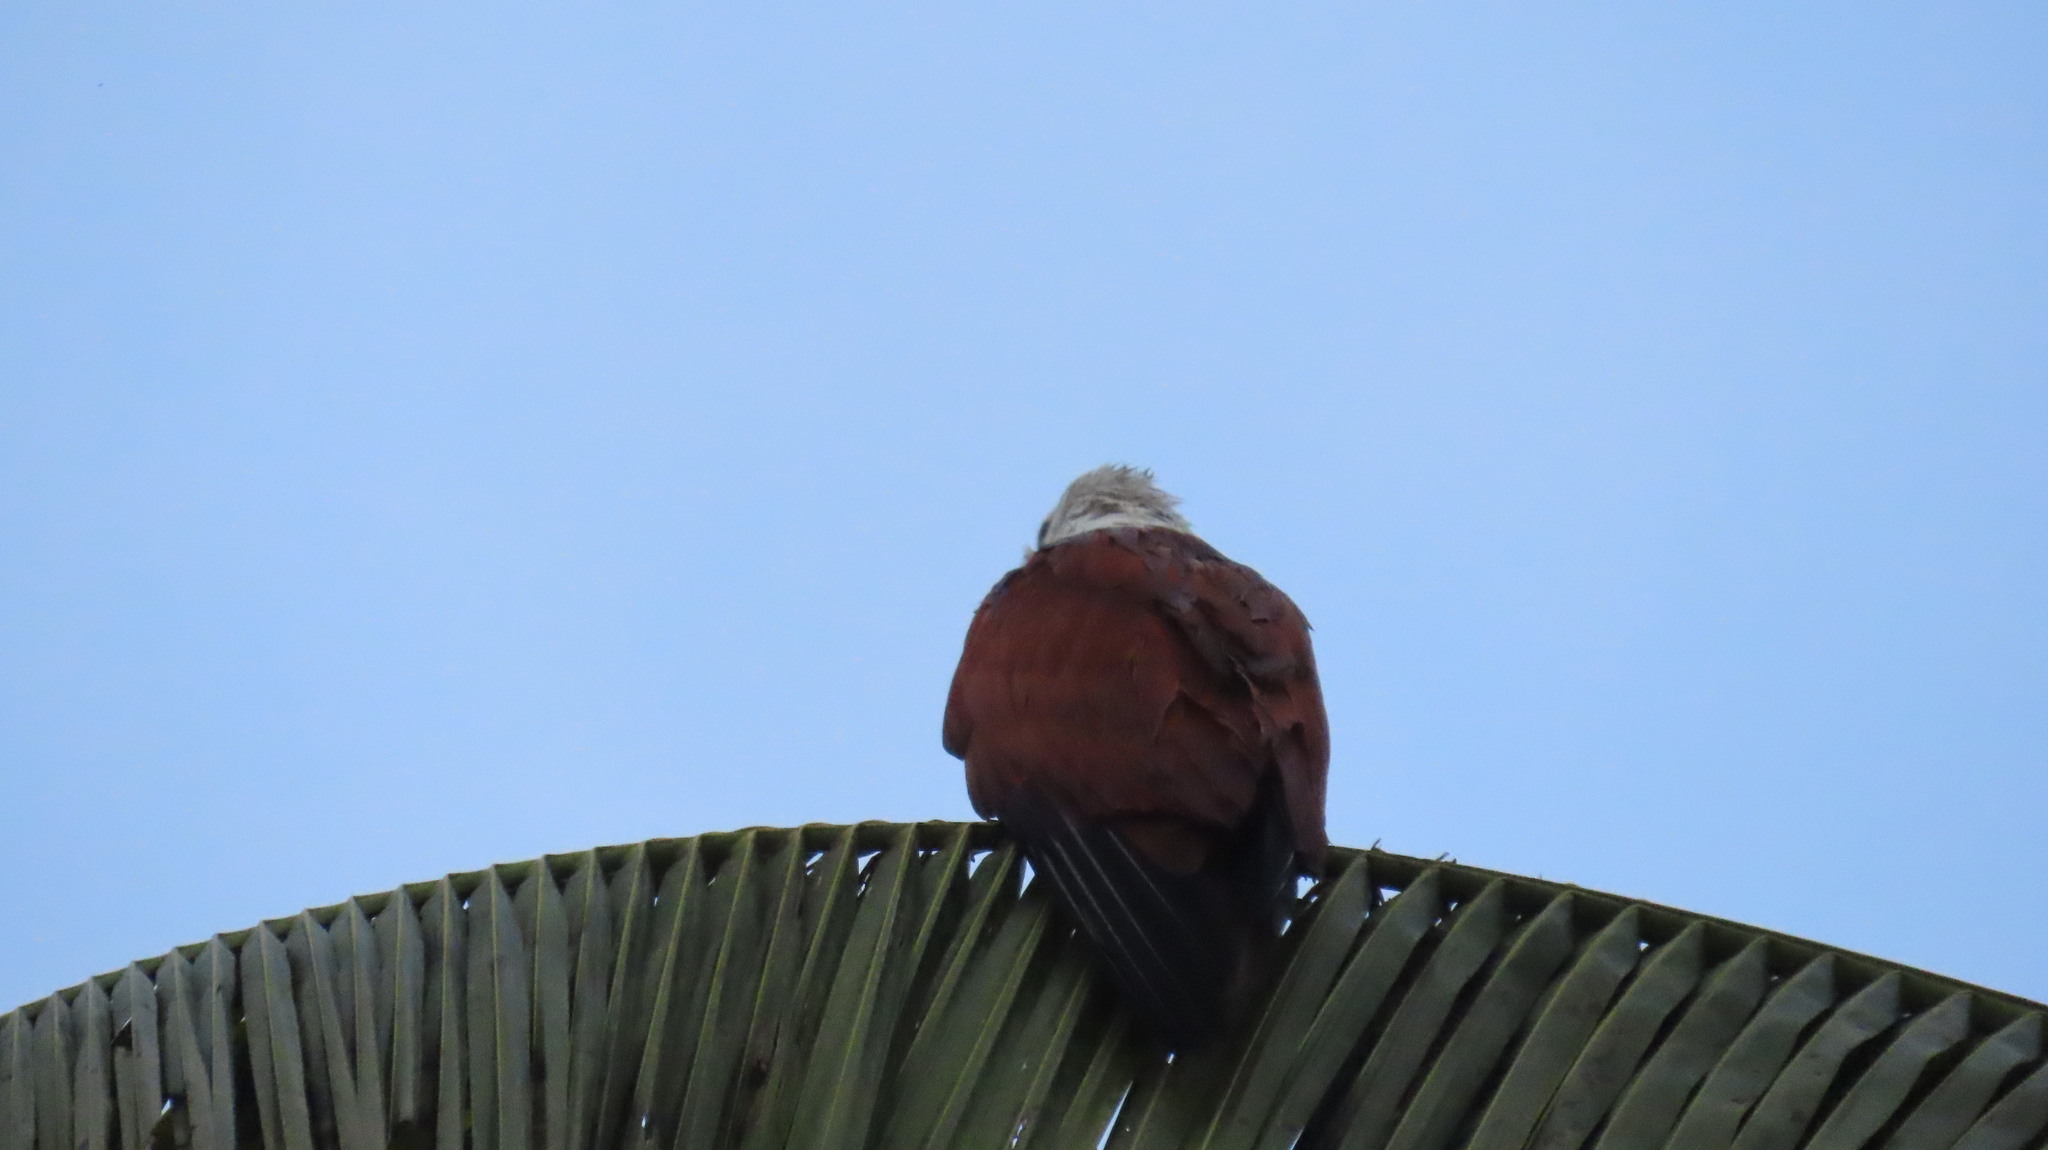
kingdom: Animalia
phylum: Chordata
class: Aves
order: Accipitriformes
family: Accipitridae
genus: Haliastur
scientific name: Haliastur indus
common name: Brahminy kite
